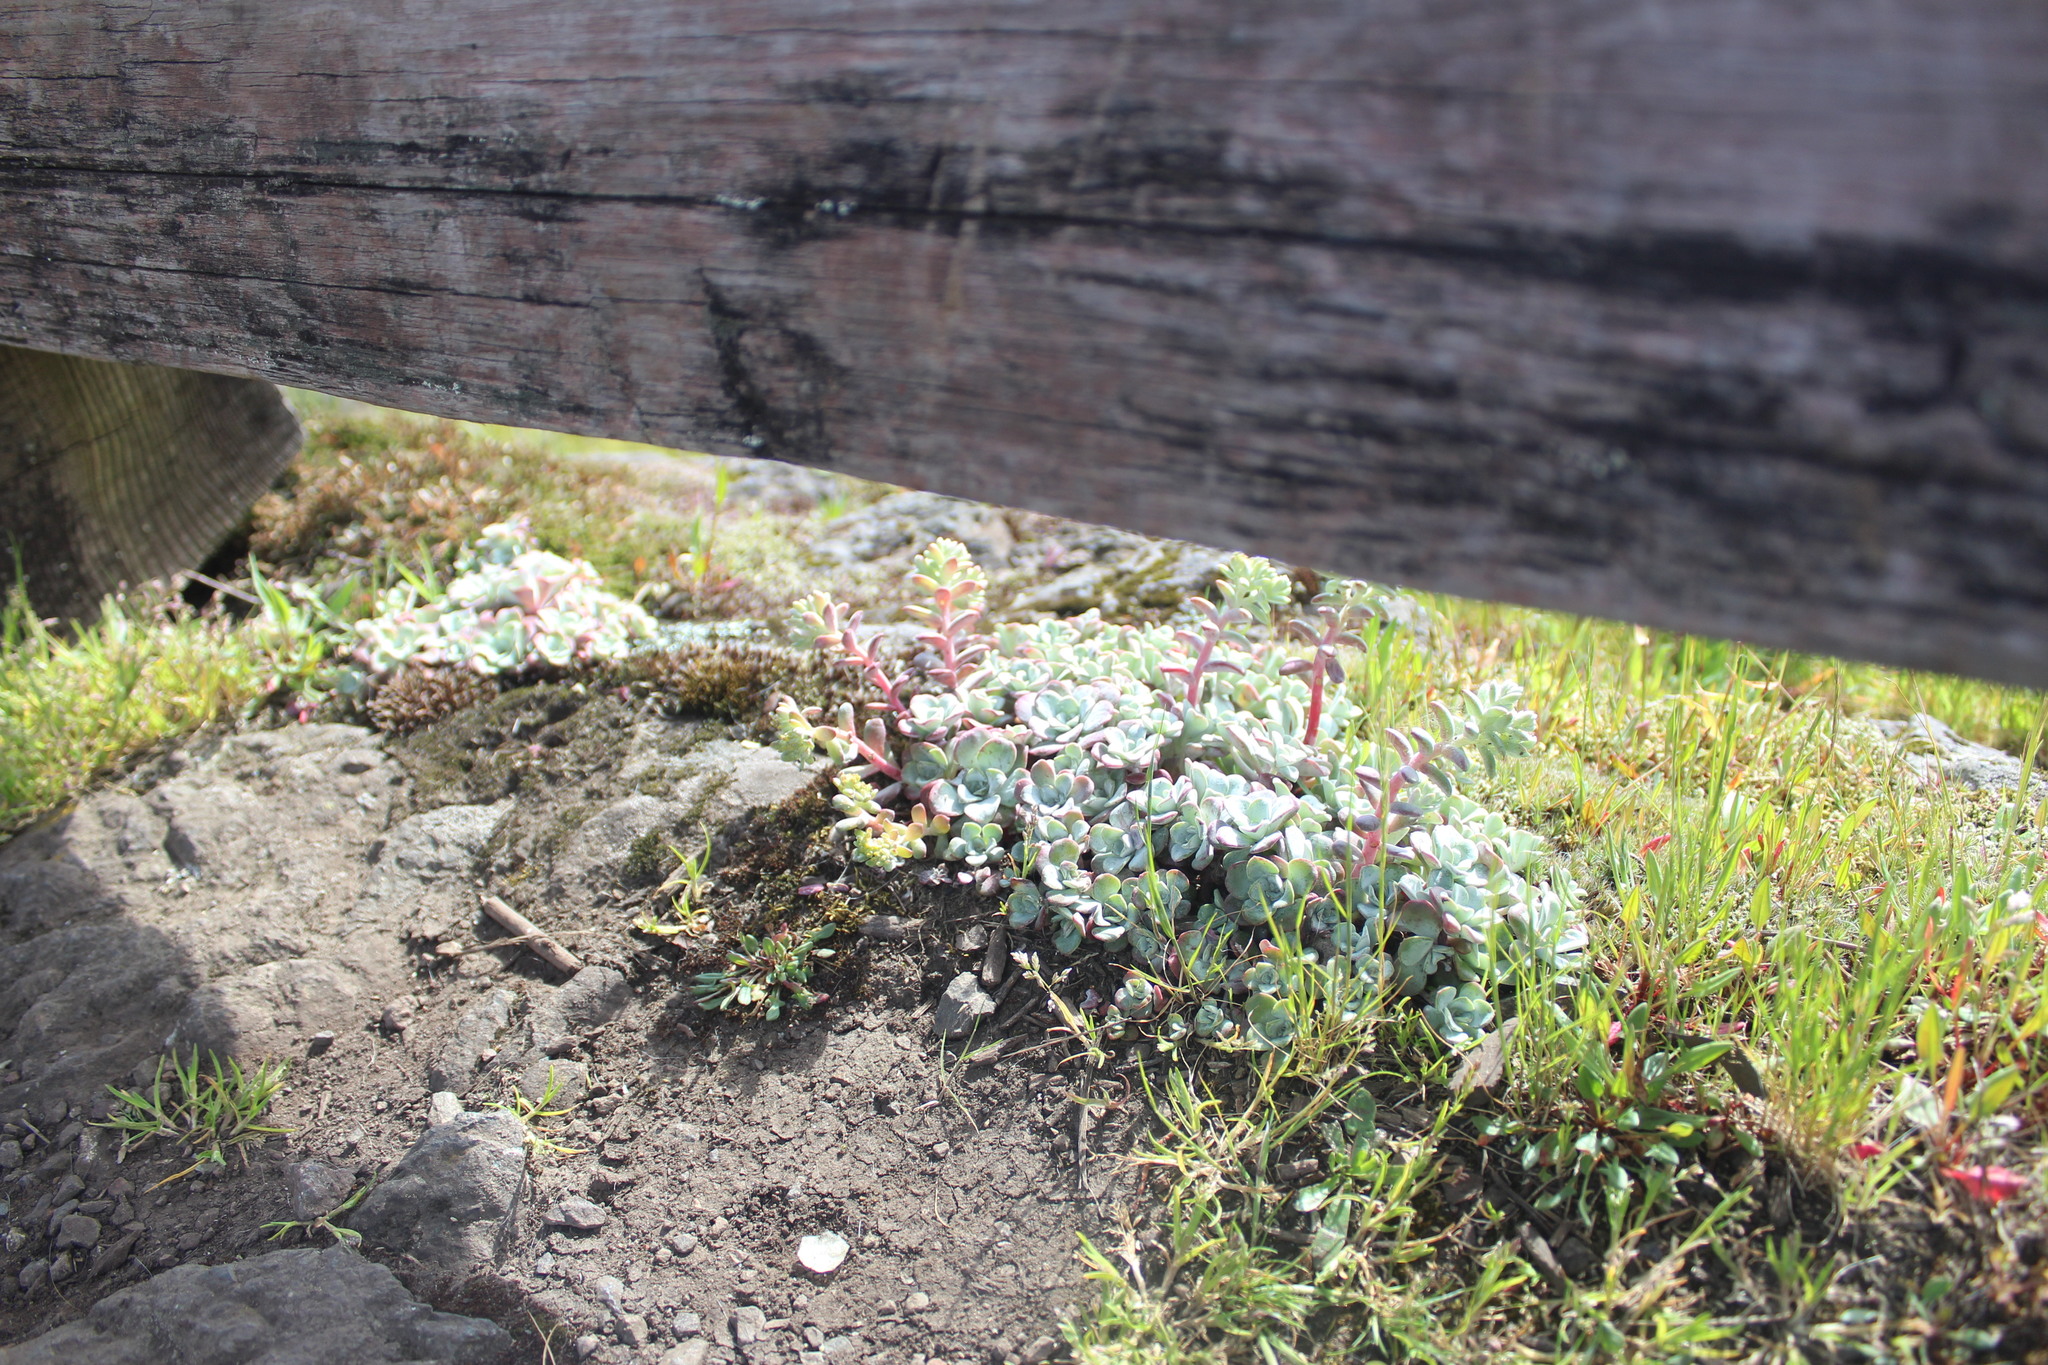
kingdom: Plantae
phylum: Tracheophyta
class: Magnoliopsida
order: Saxifragales
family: Crassulaceae
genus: Sedum
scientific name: Sedum spathulifolium
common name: Colorado stonecrop
